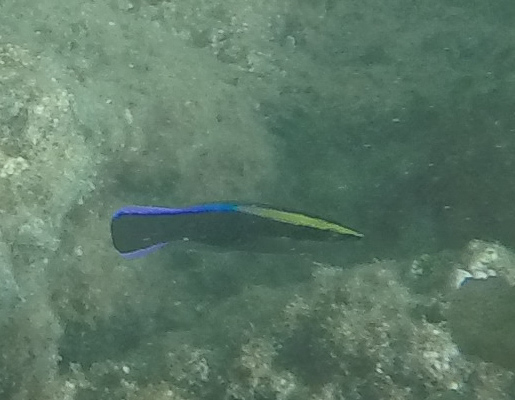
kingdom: Animalia
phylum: Chordata
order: Perciformes
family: Labridae
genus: Labroides
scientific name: Labroides phthirophagus
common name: Cleaner wrasse
